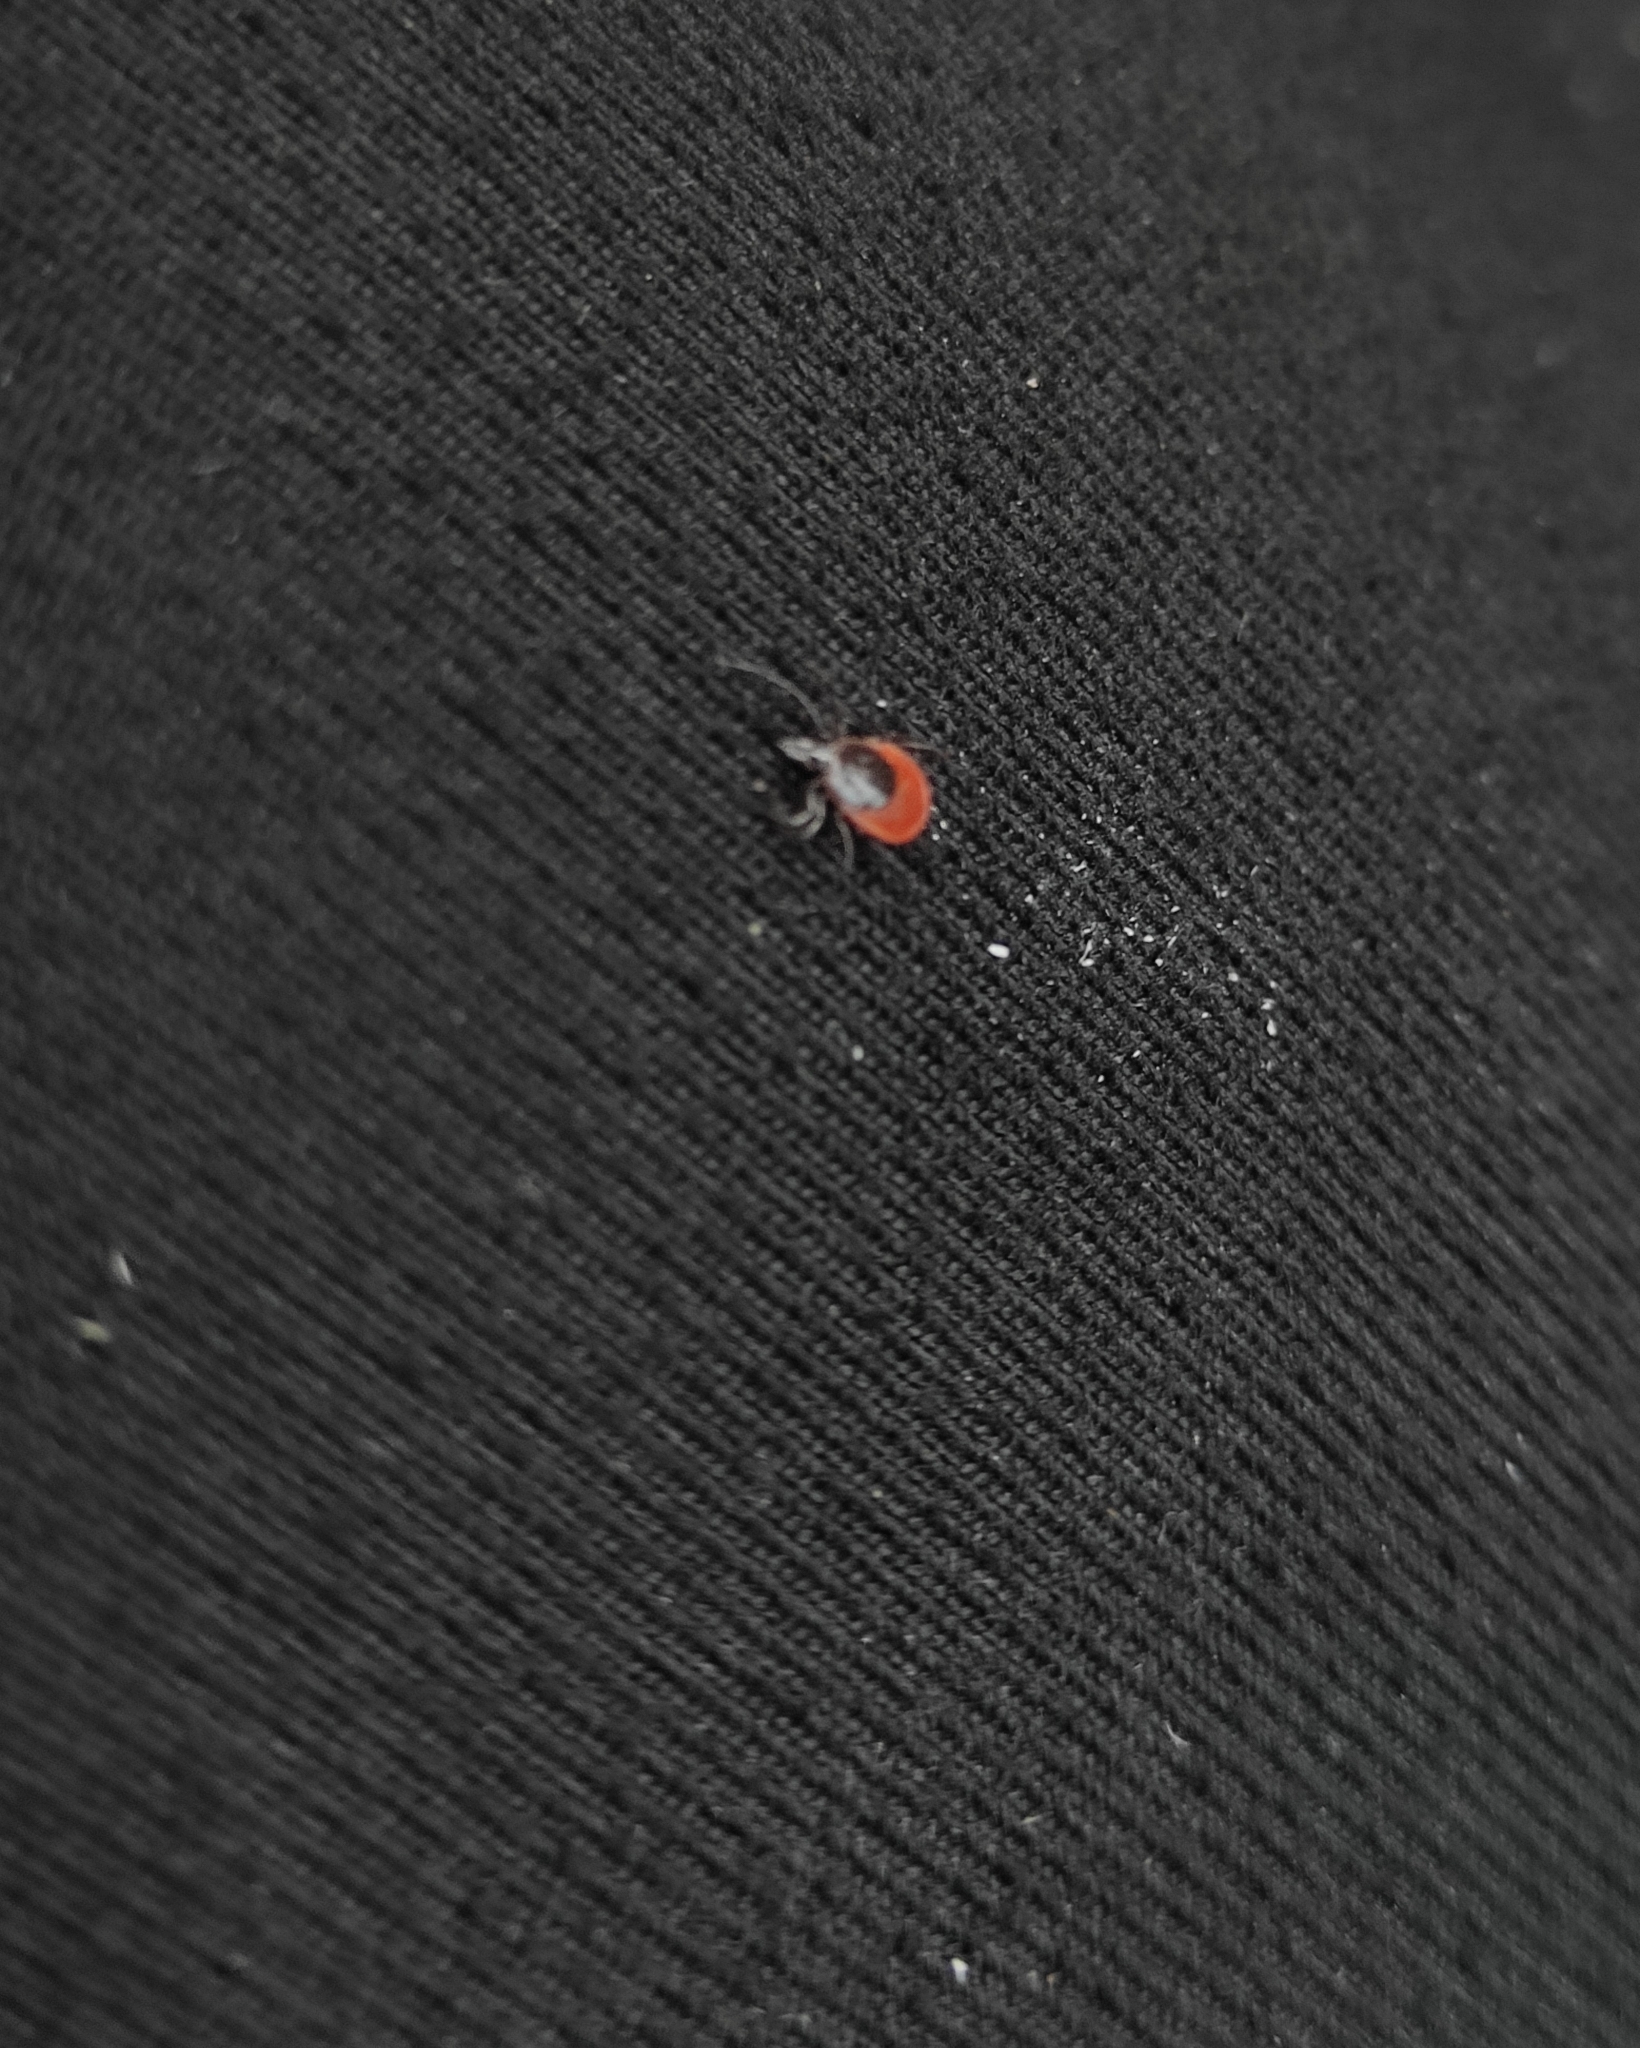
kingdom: Animalia
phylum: Arthropoda
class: Arachnida
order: Ixodida
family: Ixodidae
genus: Ixodes
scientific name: Ixodes persulcatus
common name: Taiga tick
